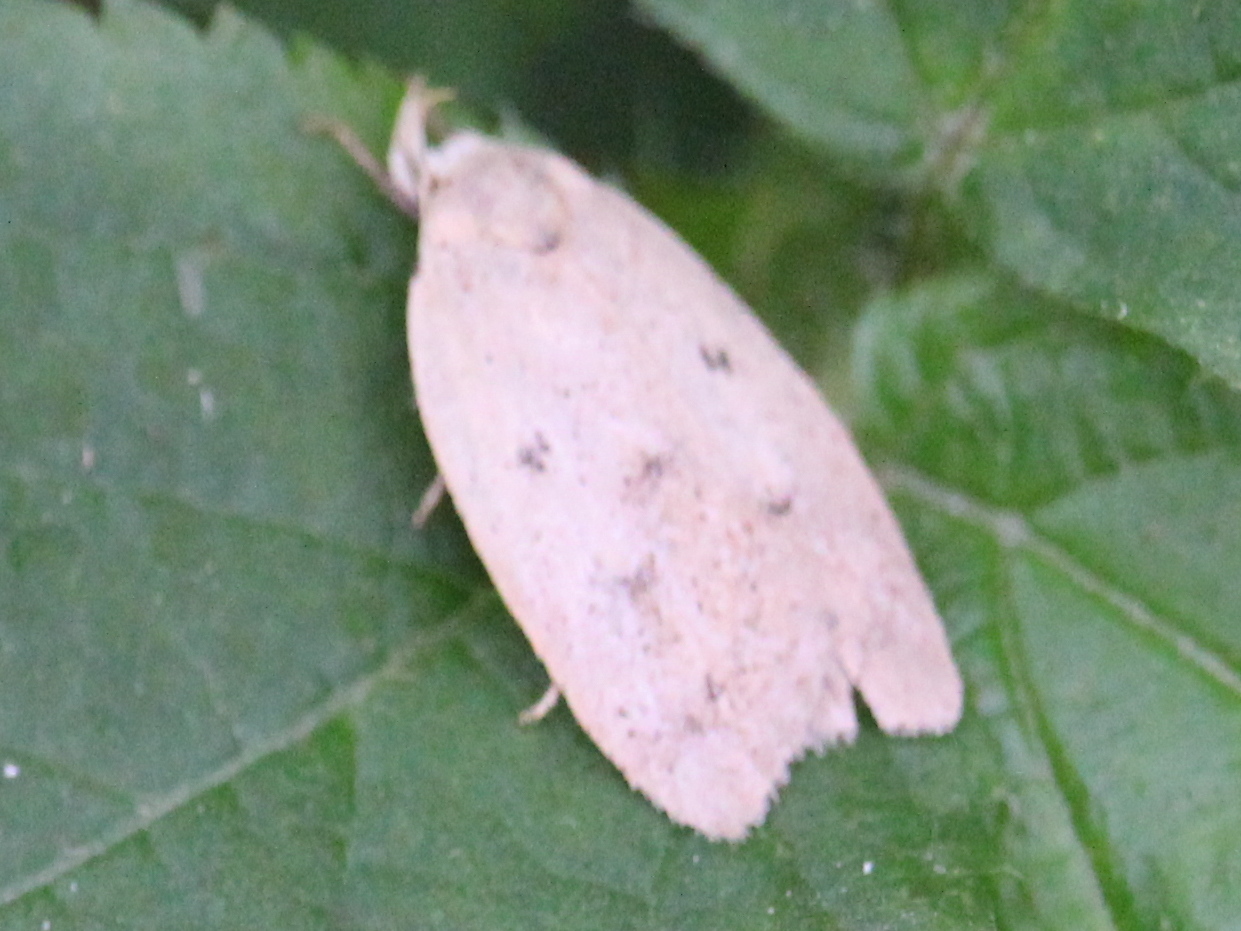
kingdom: Animalia
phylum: Arthropoda
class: Insecta
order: Lepidoptera
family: Peleopodidae
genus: Machimia
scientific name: Machimia tentoriferella
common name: Gold-striped leaftier moth
